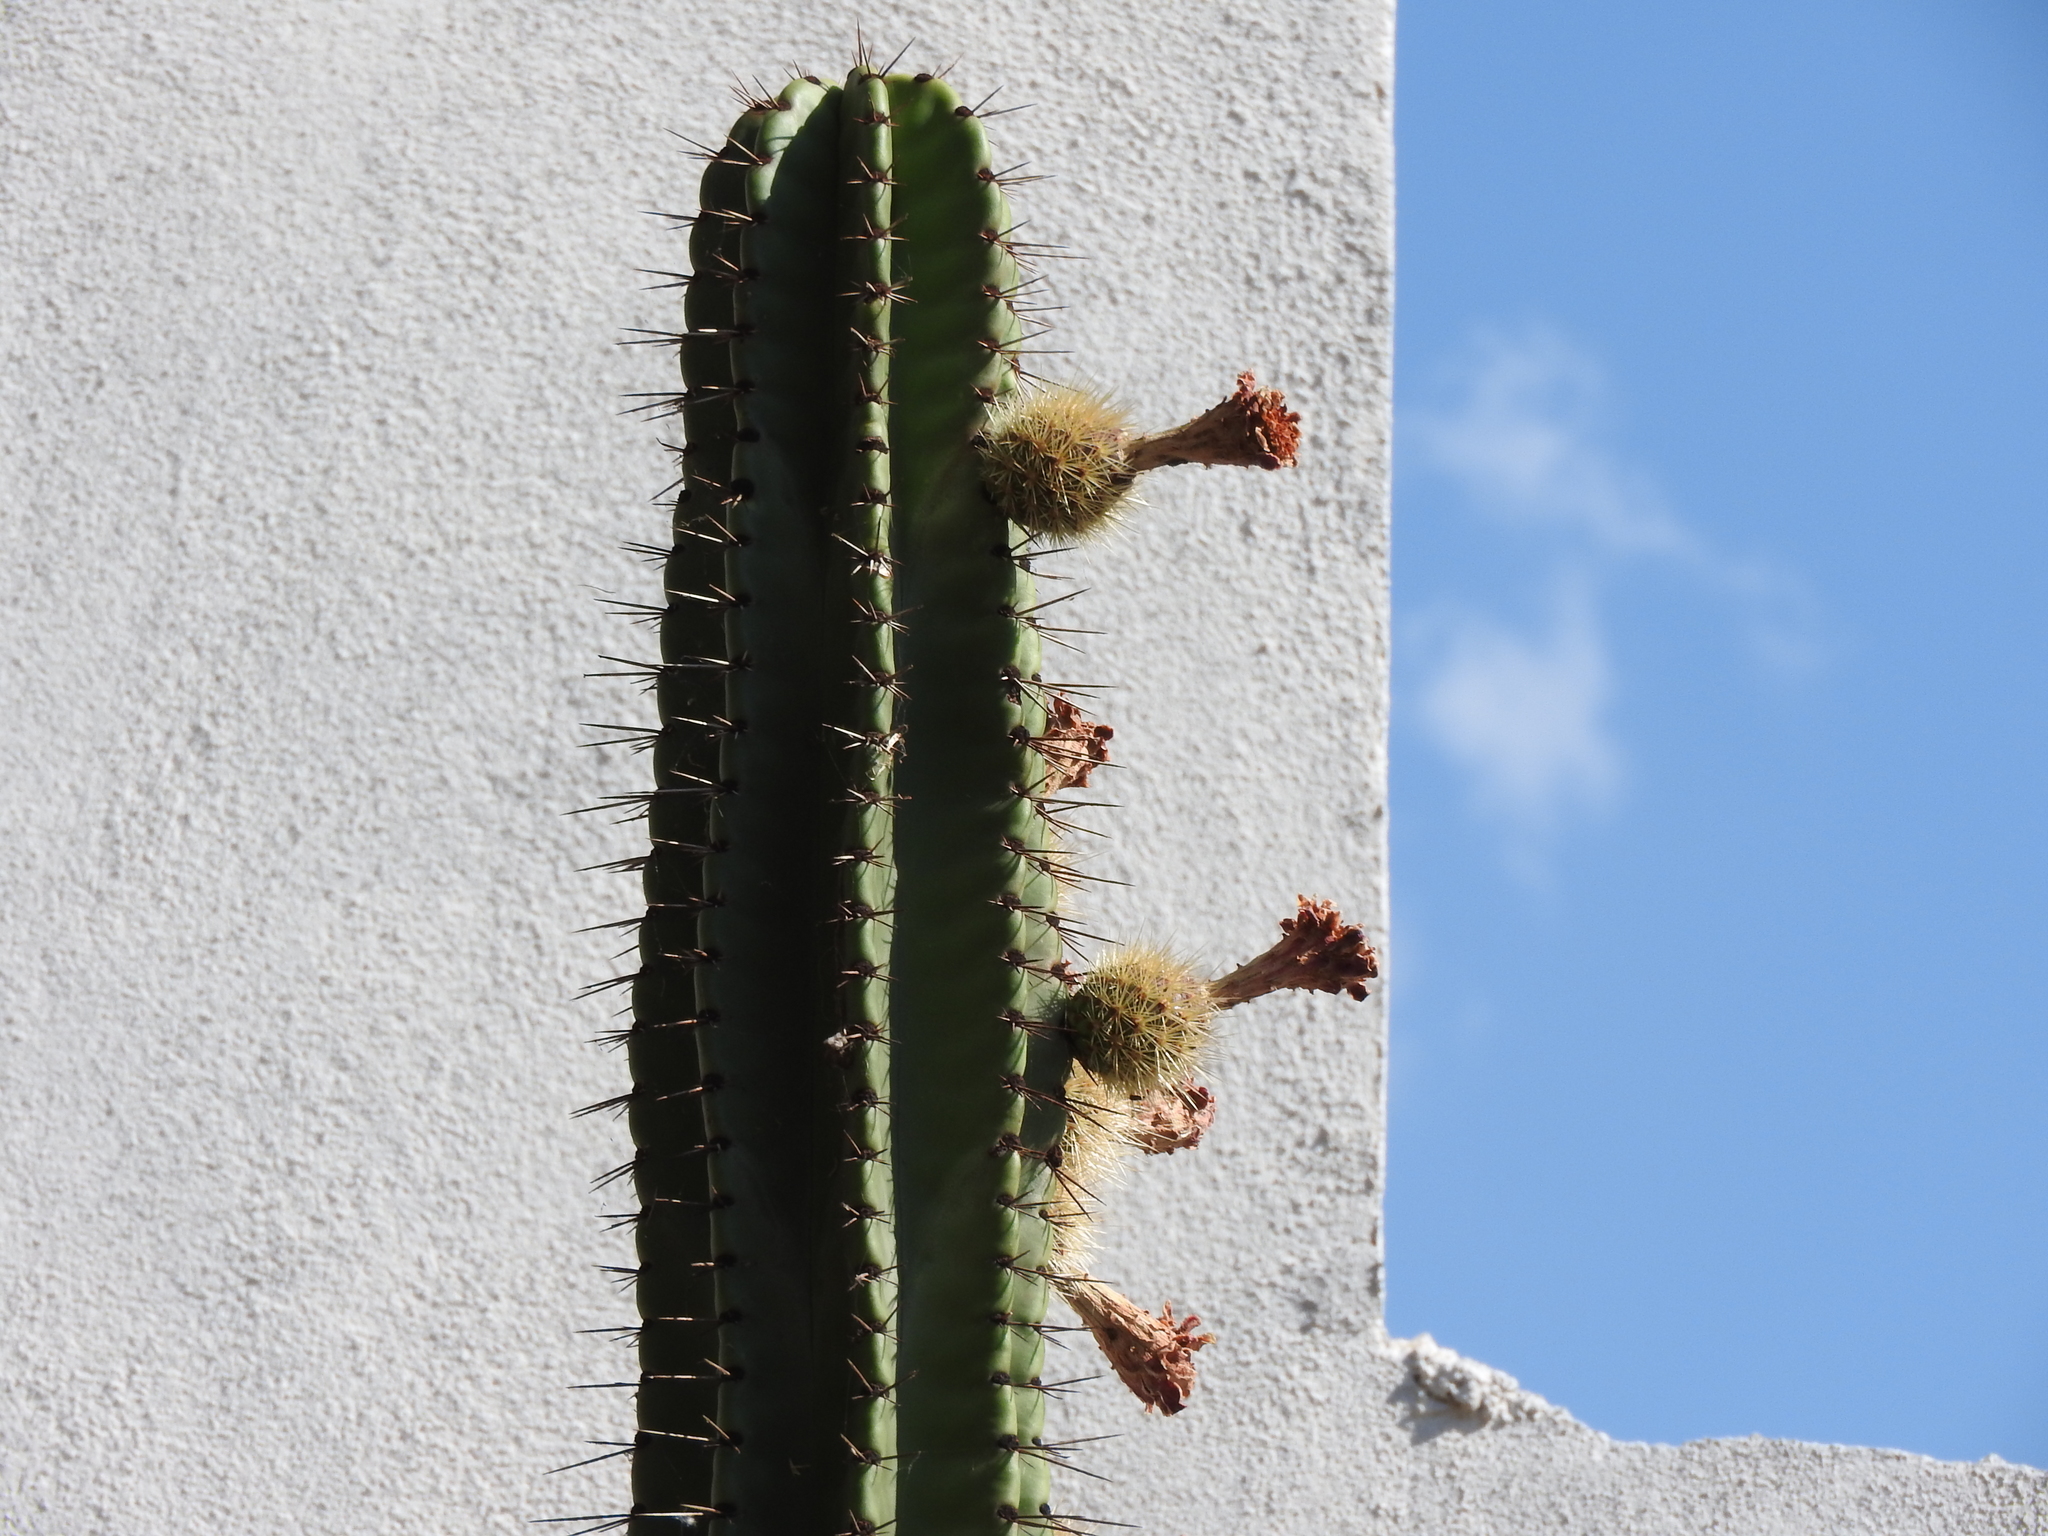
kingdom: Plantae
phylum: Tracheophyta
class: Magnoliopsida
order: Caryophyllales
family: Cactaceae
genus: Stenocereus
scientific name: Stenocereus queretaroensis
